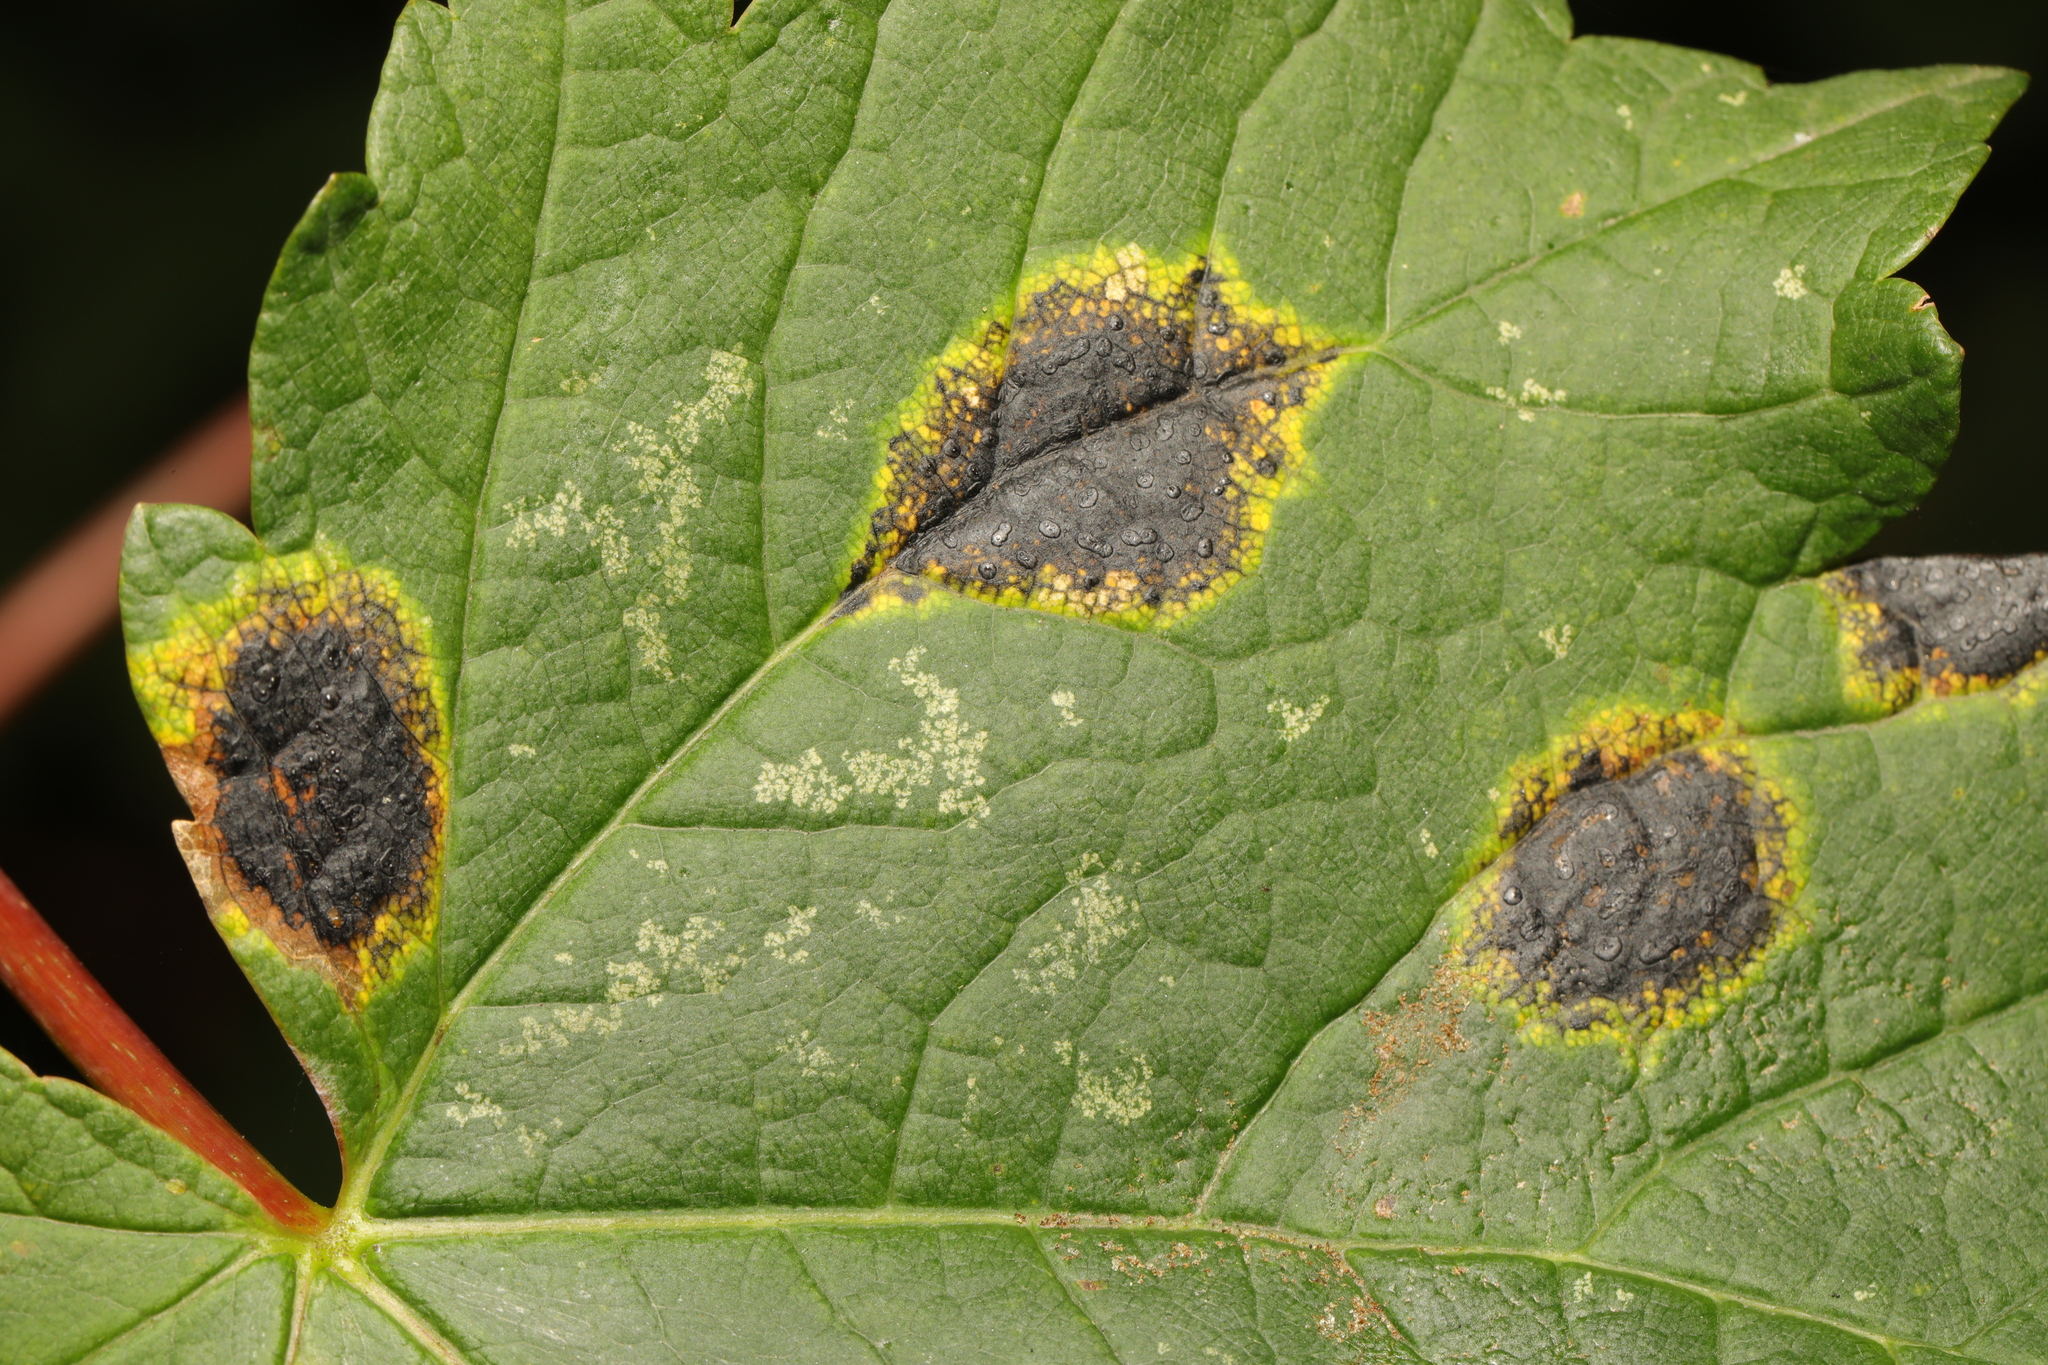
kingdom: Fungi
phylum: Ascomycota
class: Leotiomycetes
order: Rhytismatales
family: Rhytismataceae
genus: Rhytisma
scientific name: Rhytisma acerinum
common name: European tar spot
